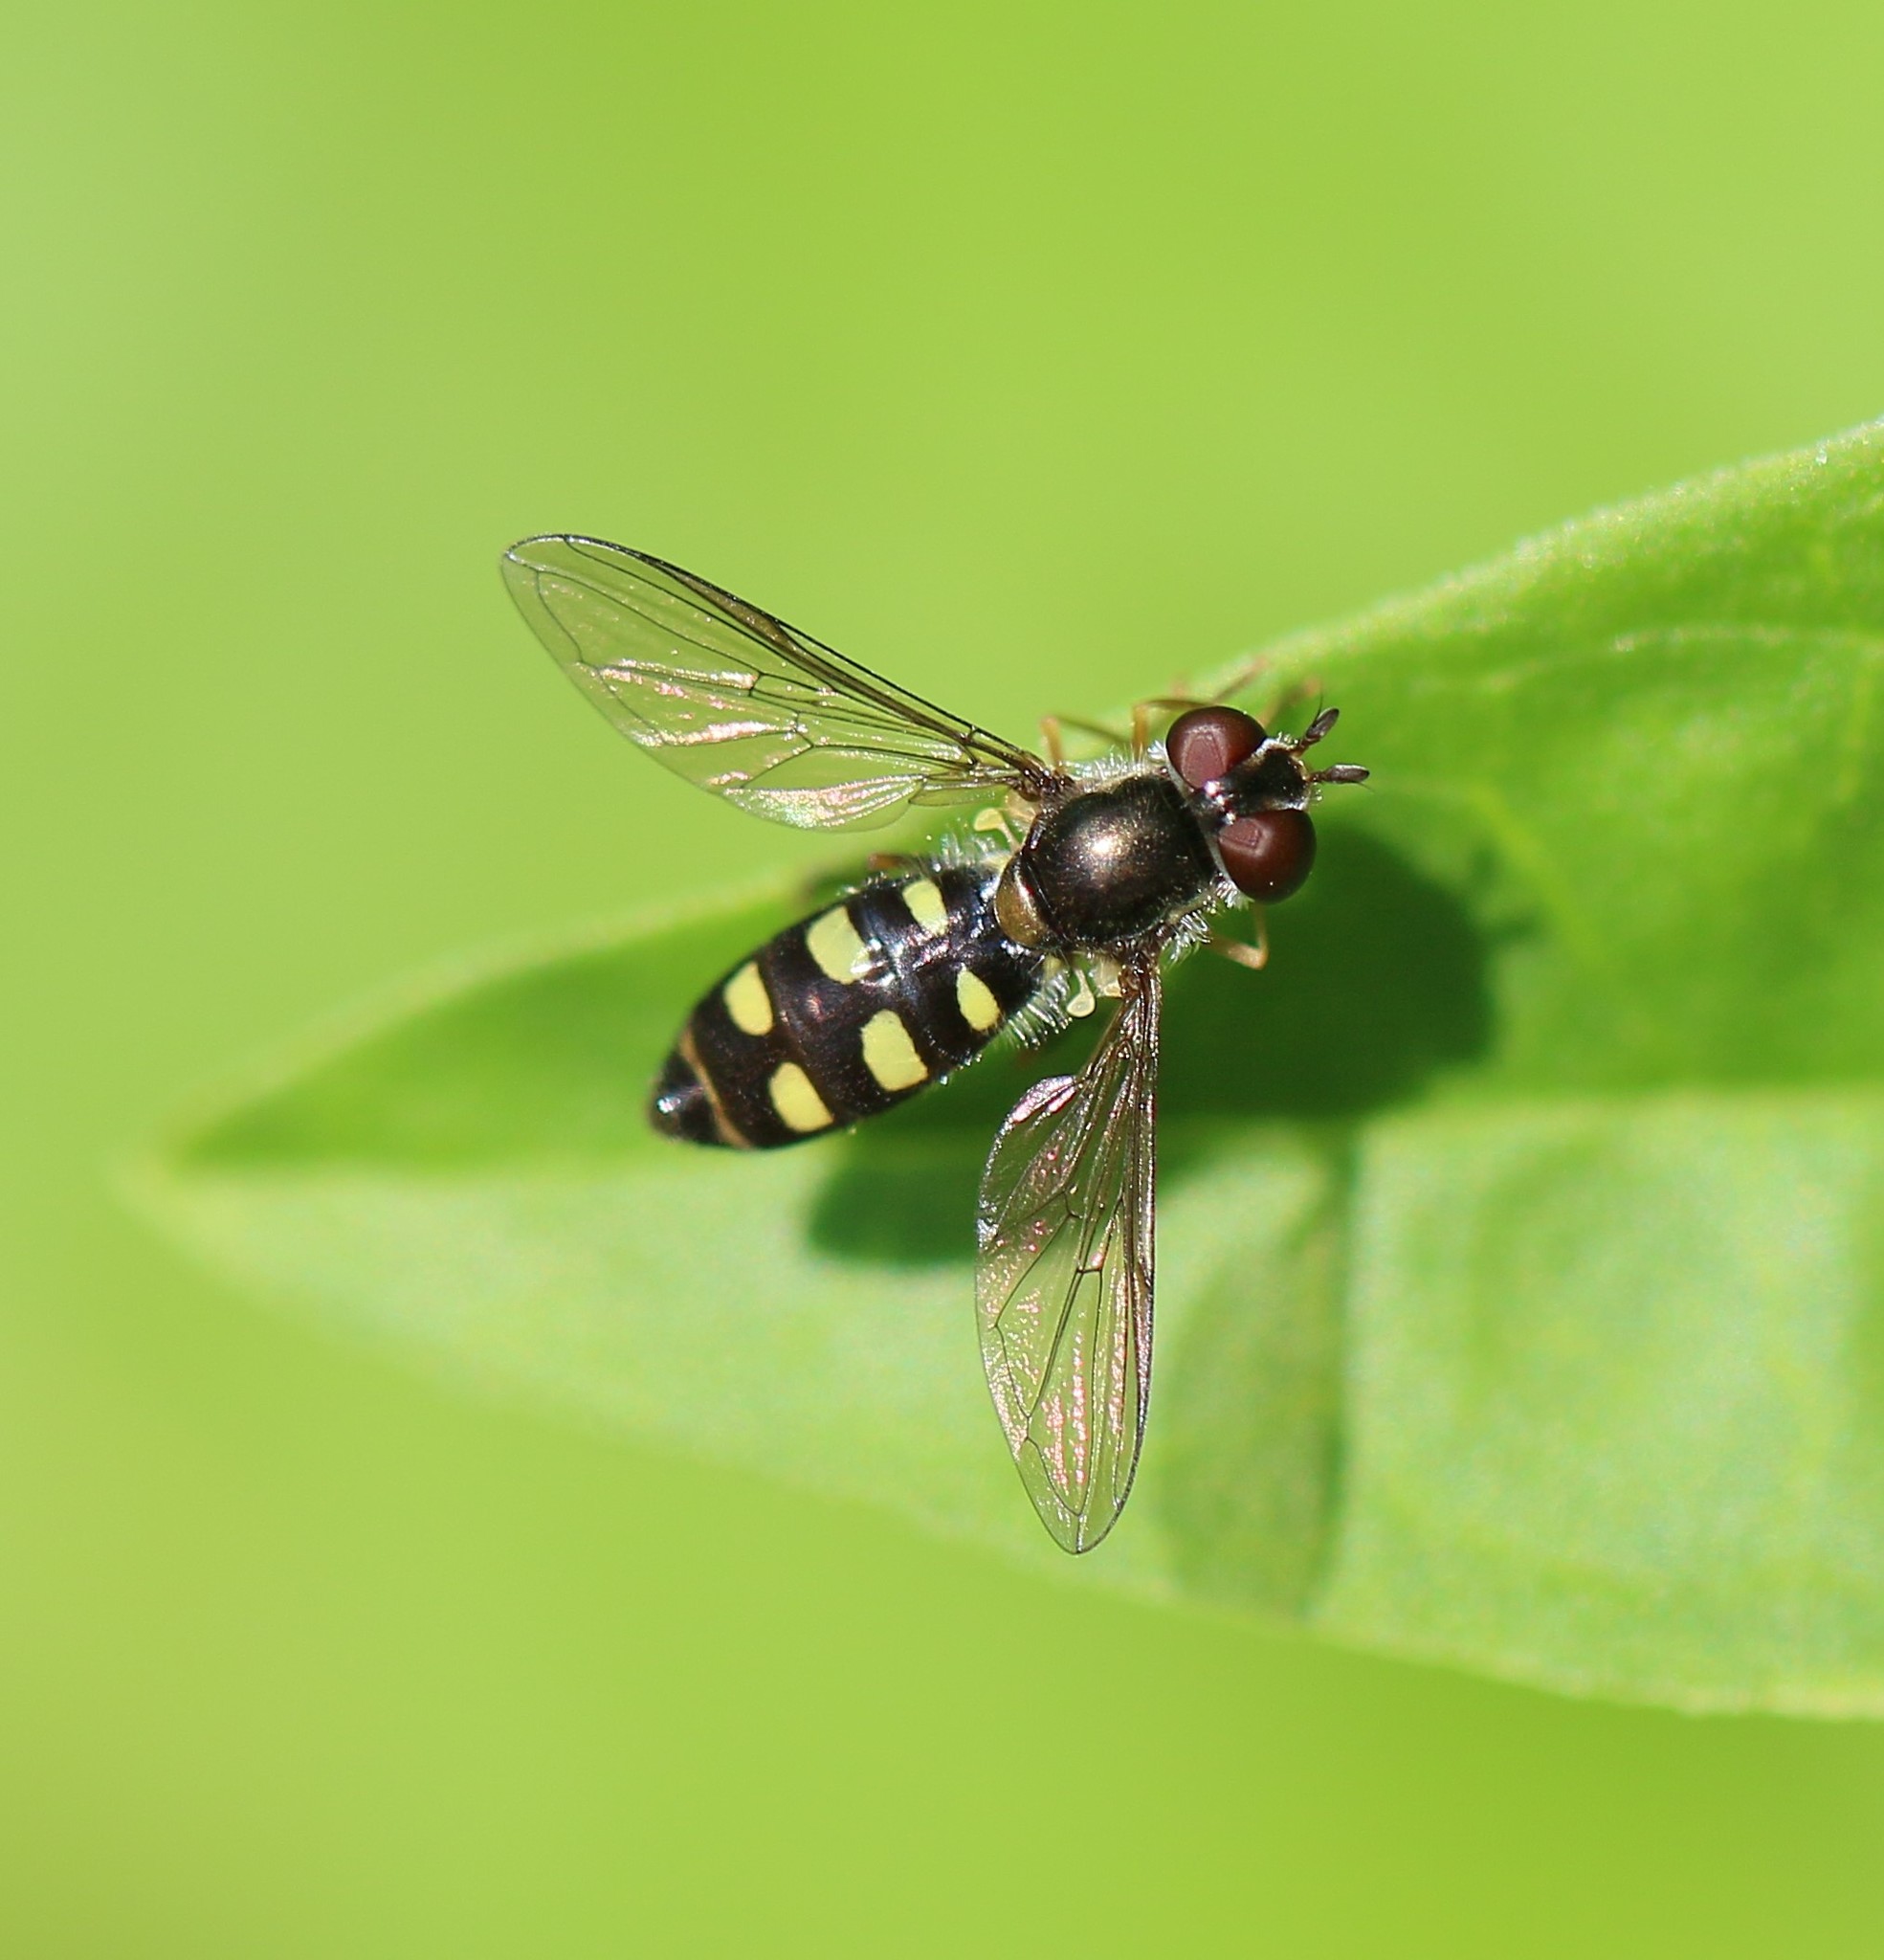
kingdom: Animalia
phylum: Arthropoda
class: Insecta
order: Diptera
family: Syrphidae
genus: Epistrophella
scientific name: Epistrophella emarginata
